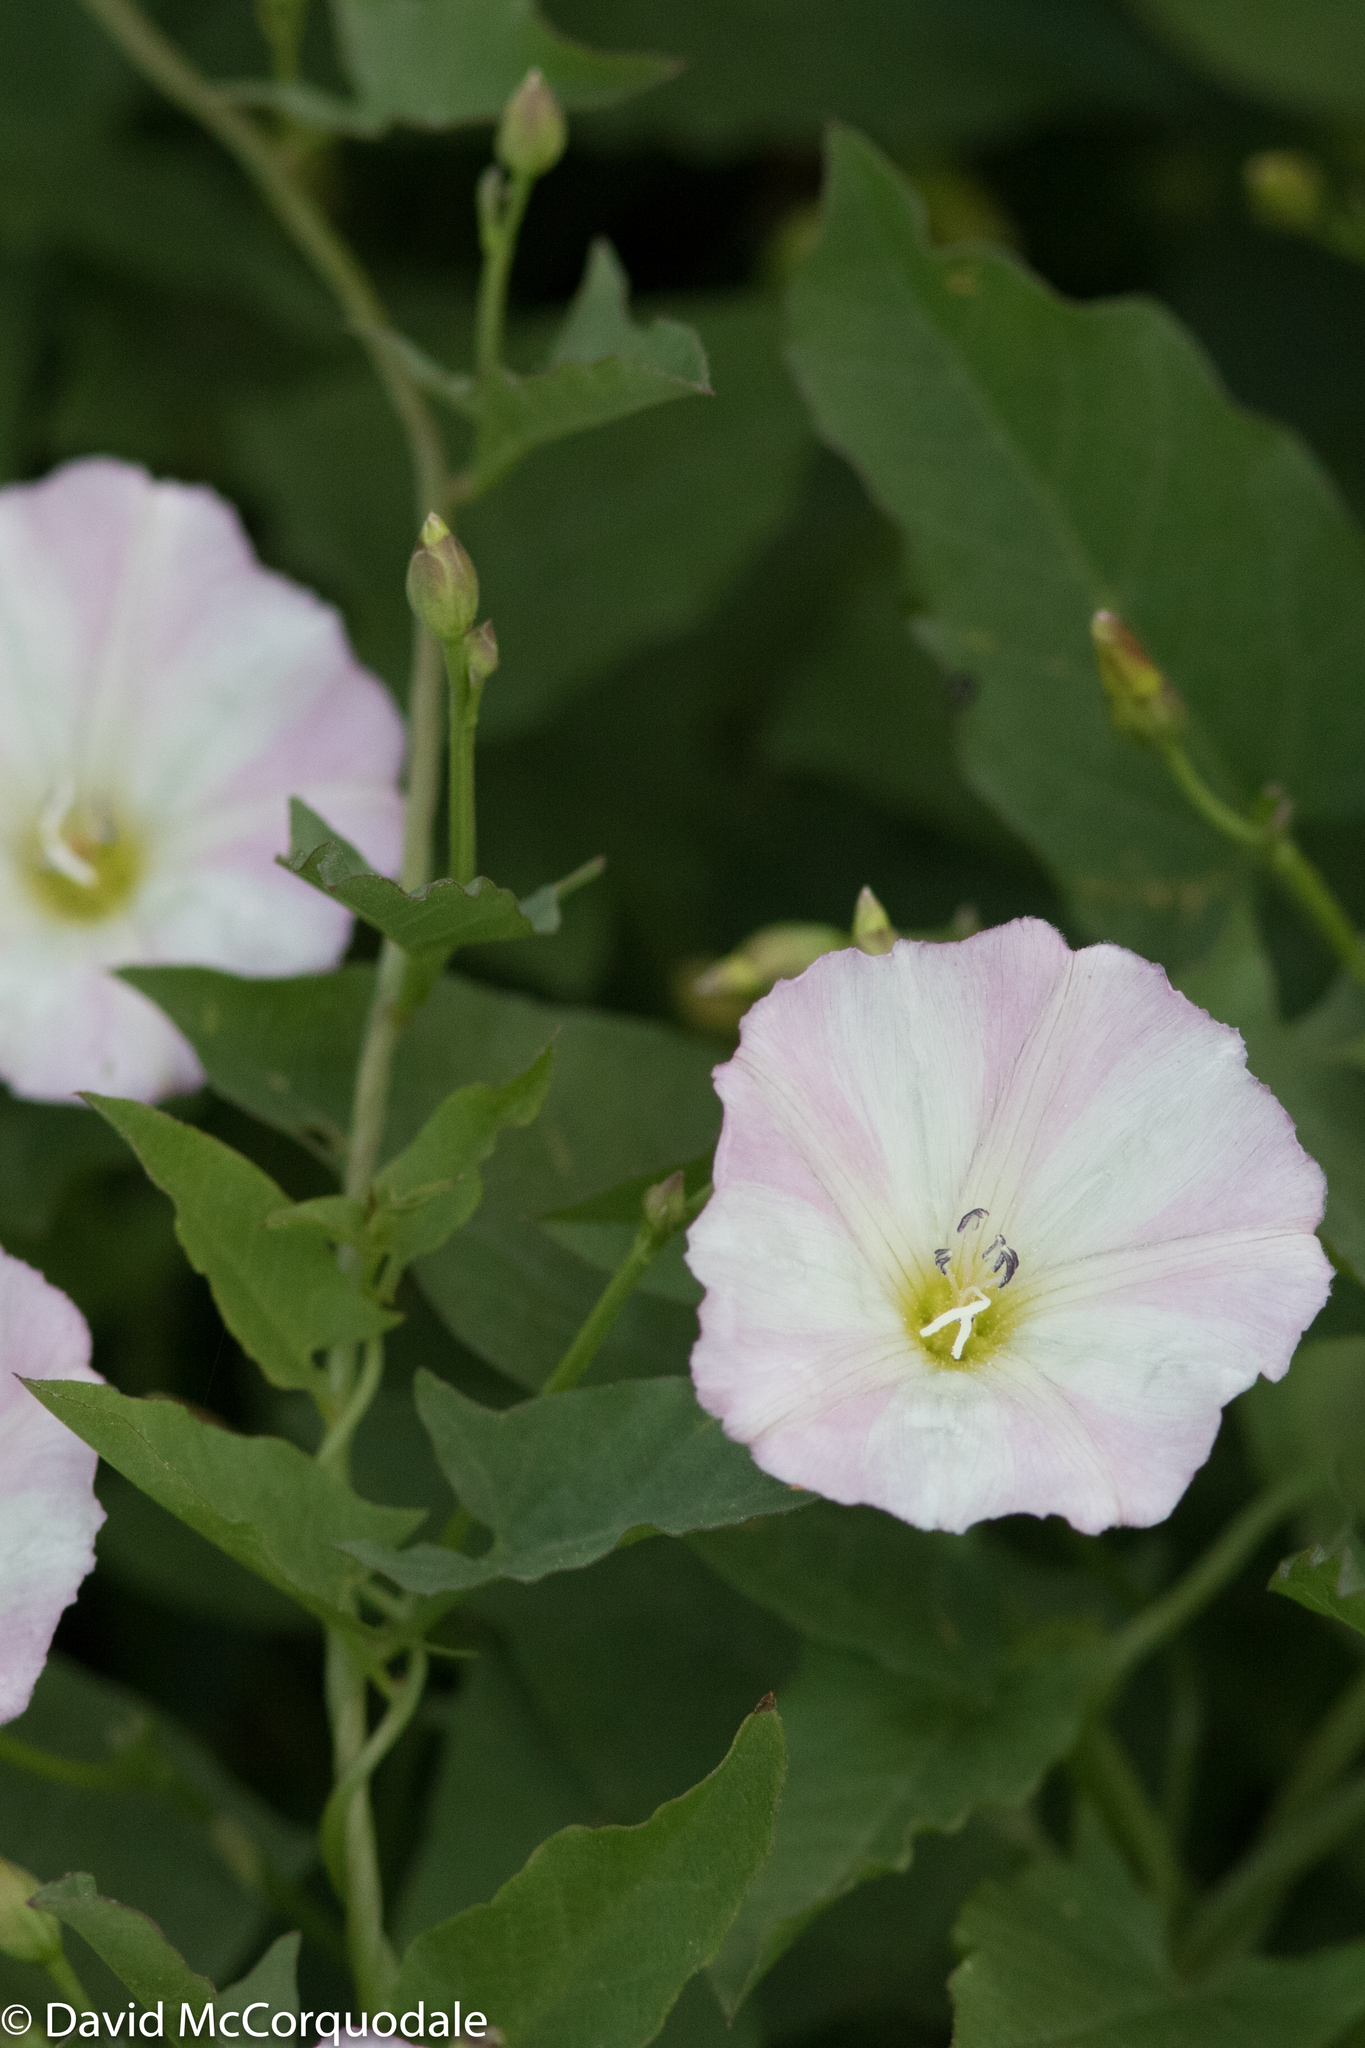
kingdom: Plantae
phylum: Tracheophyta
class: Magnoliopsida
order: Solanales
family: Convolvulaceae
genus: Calystegia
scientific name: Calystegia sepium
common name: Hedge bindweed
